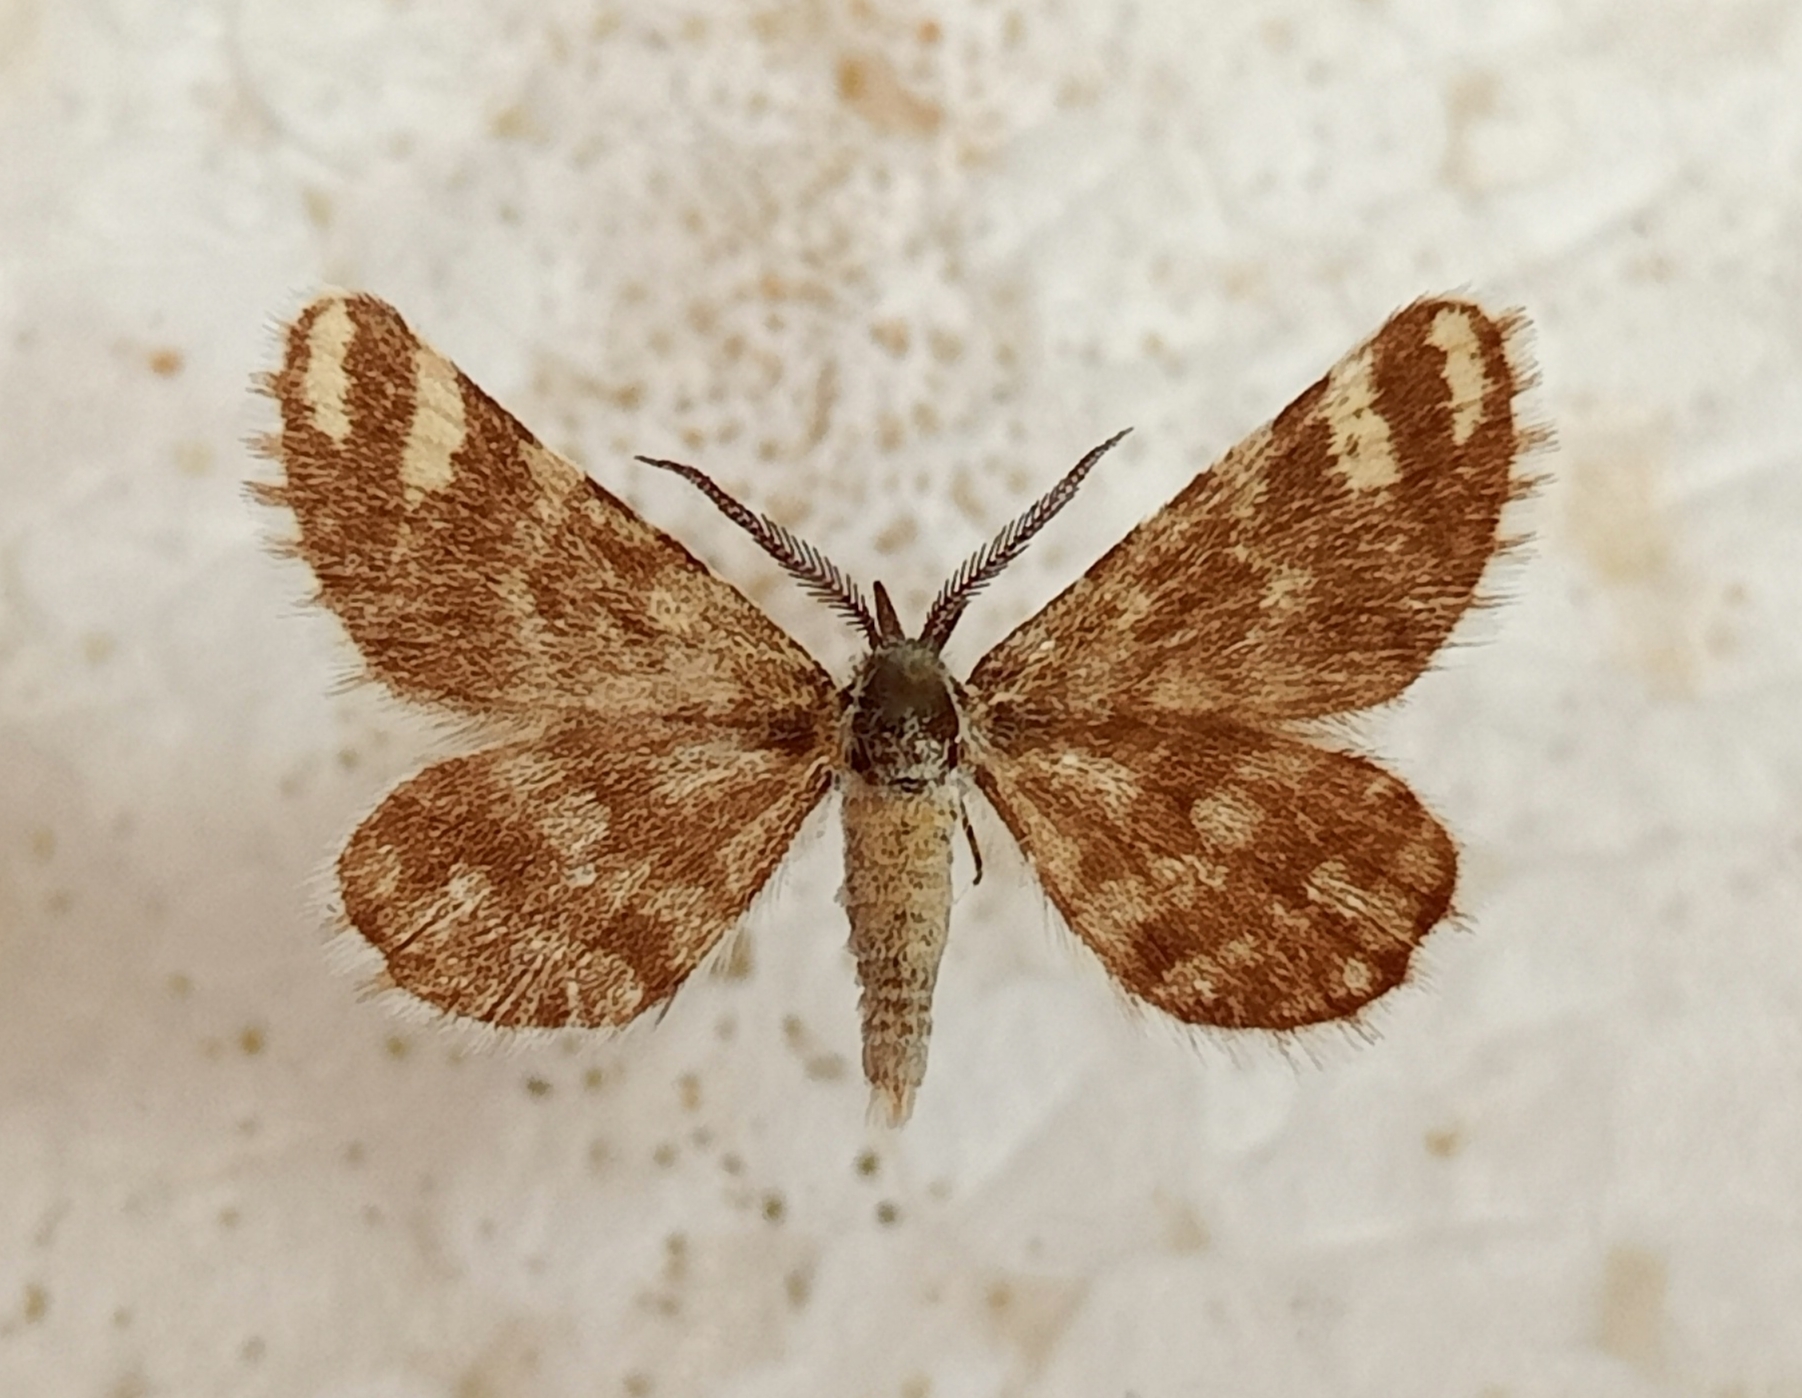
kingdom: Animalia
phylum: Arthropoda
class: Insecta
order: Lepidoptera
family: Geometridae
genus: Narraga
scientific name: Narraga fasciolaria
